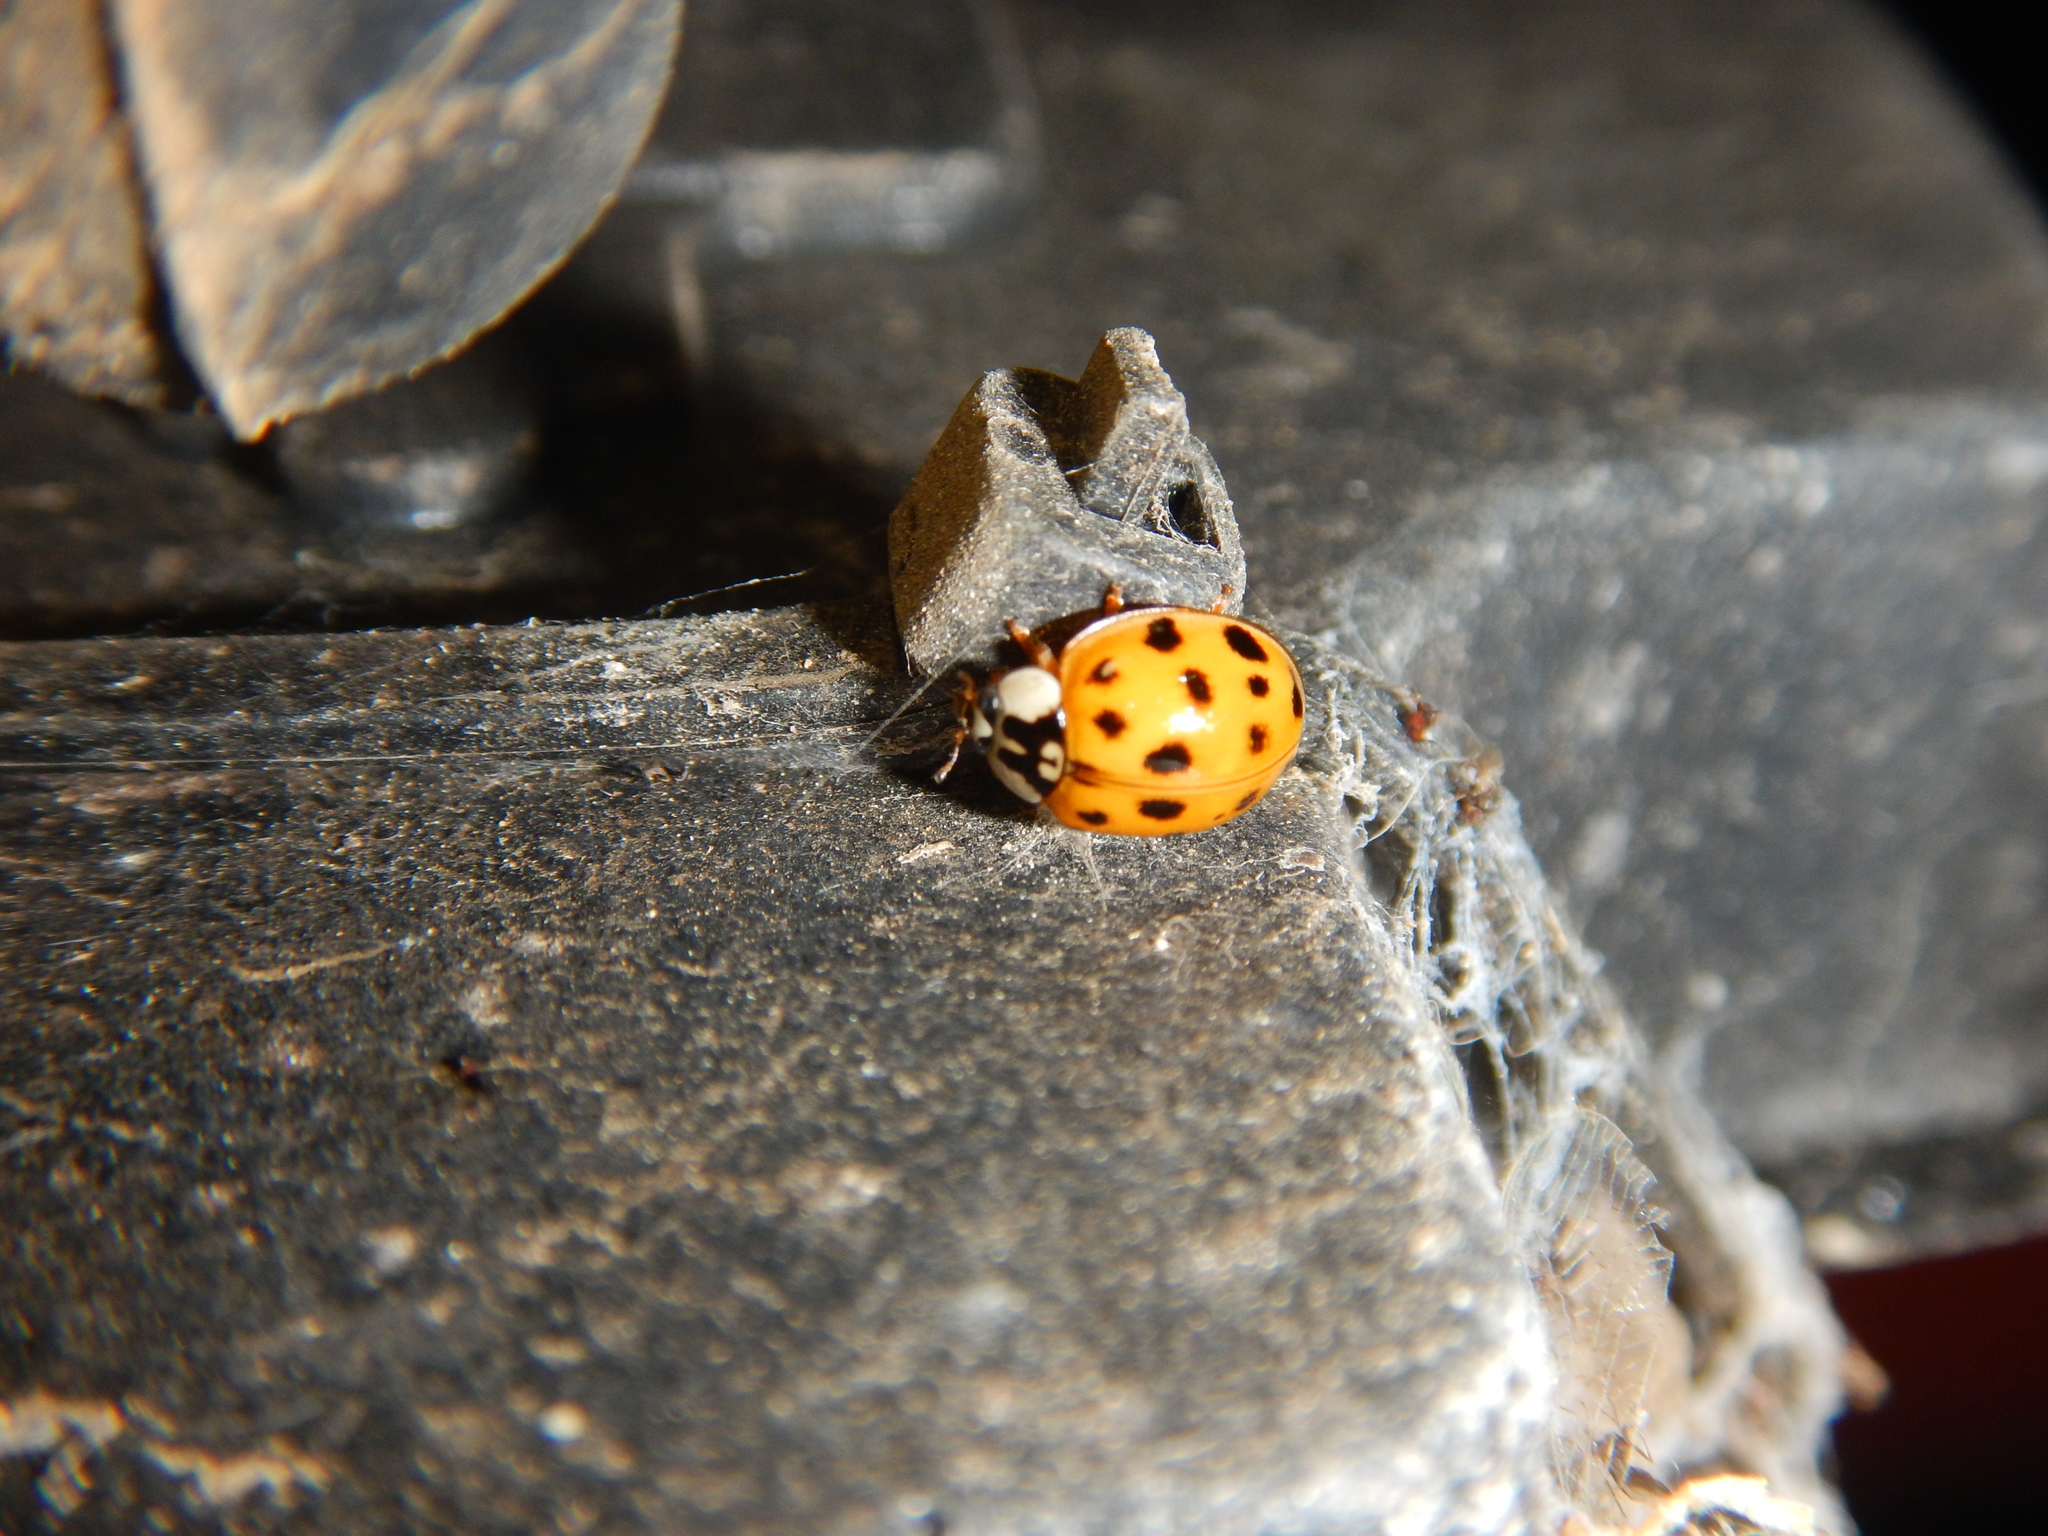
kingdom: Animalia
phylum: Arthropoda
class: Insecta
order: Coleoptera
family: Coccinellidae
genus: Harmonia
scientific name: Harmonia axyridis
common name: Harlequin ladybird
